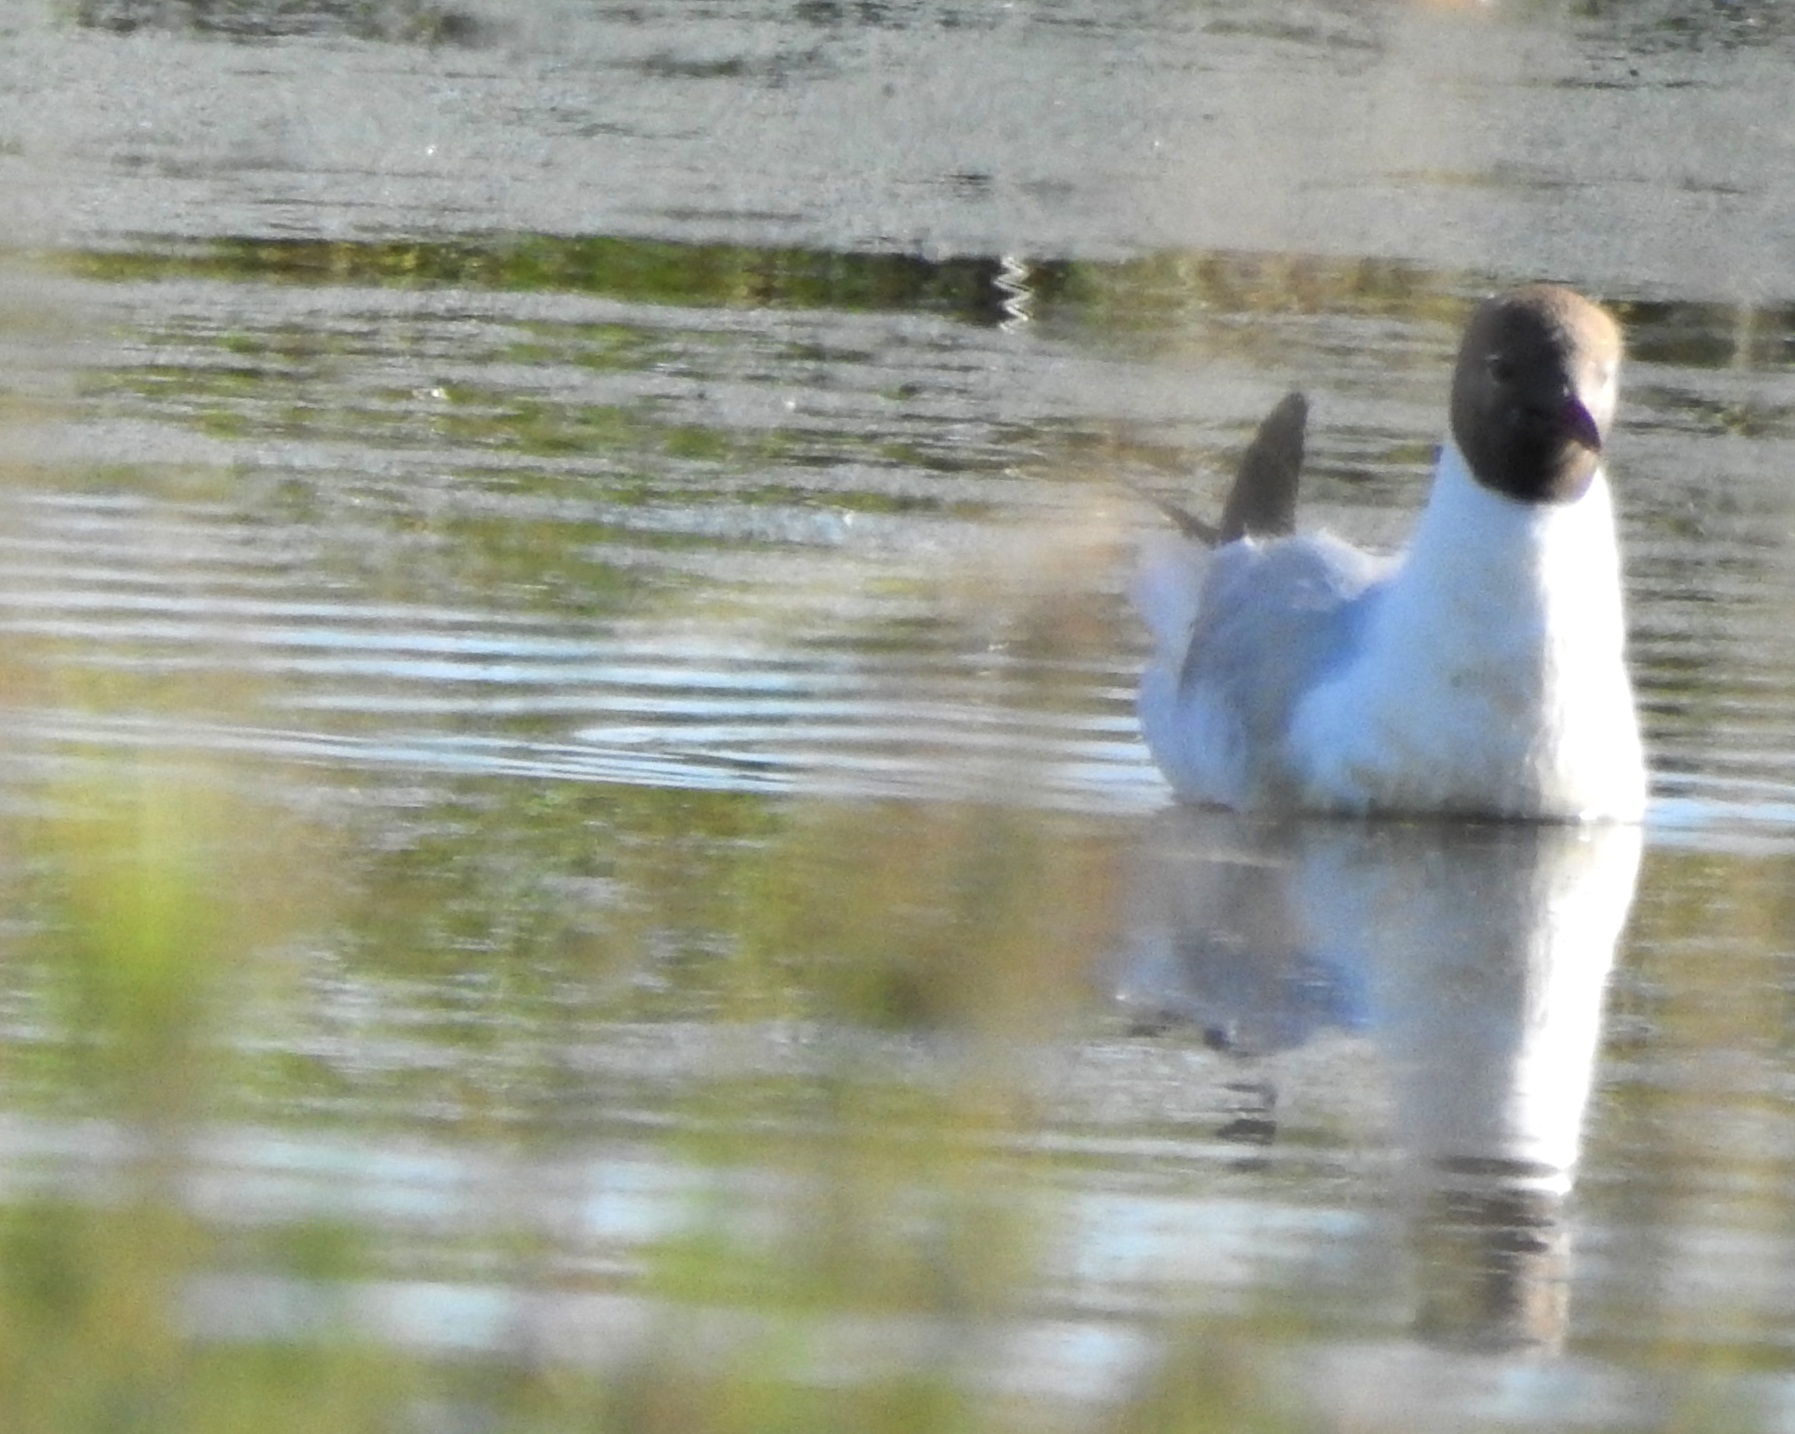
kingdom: Animalia
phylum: Chordata
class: Aves
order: Charadriiformes
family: Laridae
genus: Chroicocephalus
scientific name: Chroicocephalus ridibundus
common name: Black-headed gull
